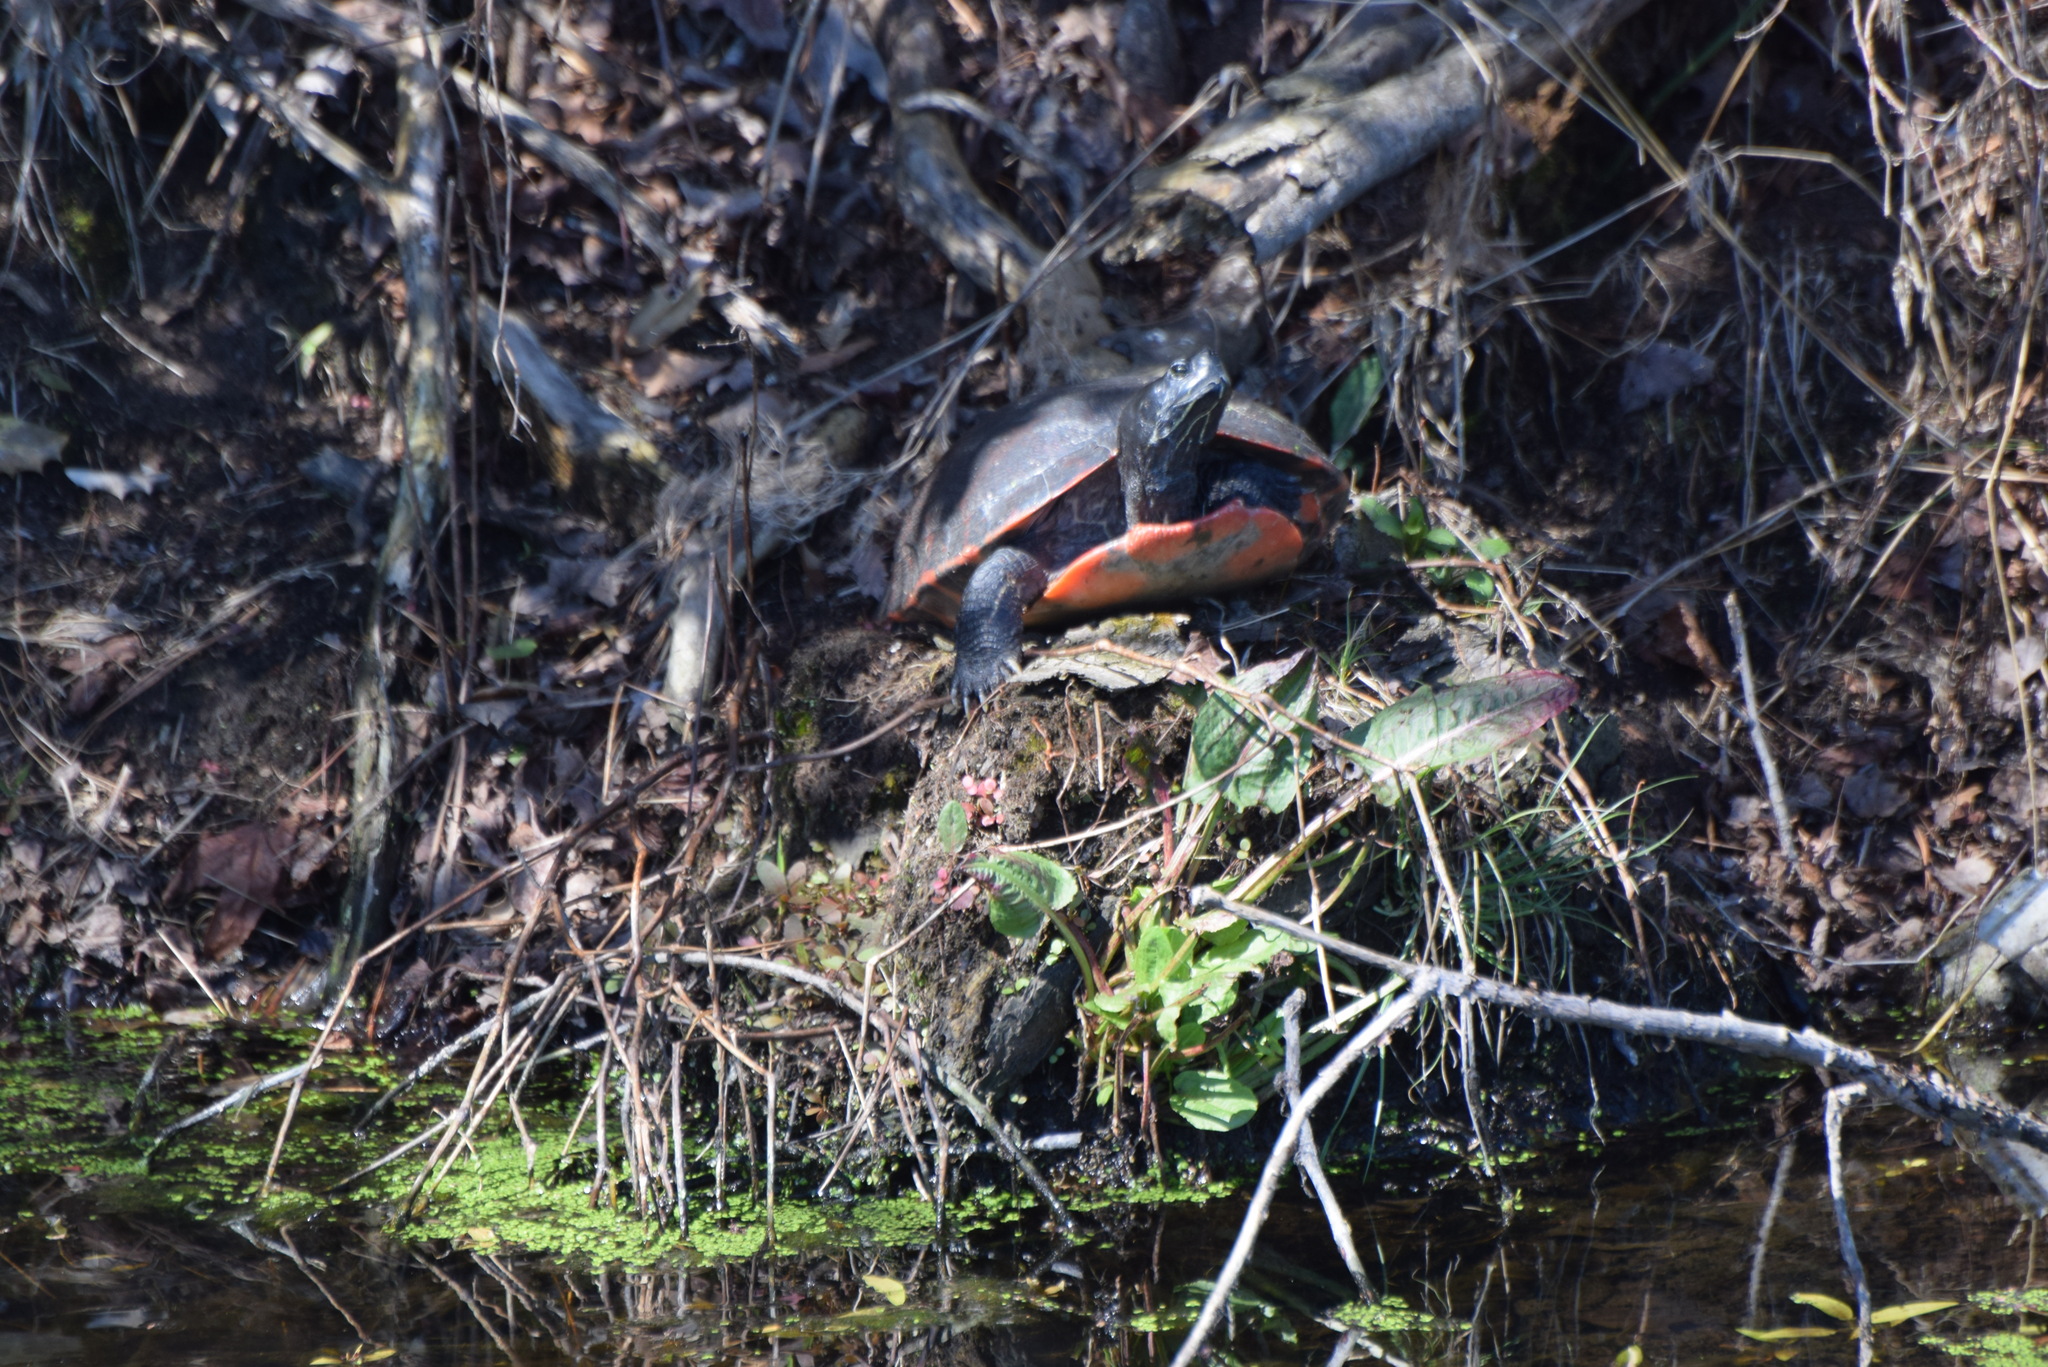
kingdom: Animalia
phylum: Chordata
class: Testudines
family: Emydidae
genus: Pseudemys
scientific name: Pseudemys rubriventris
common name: American red-bellied turtle
